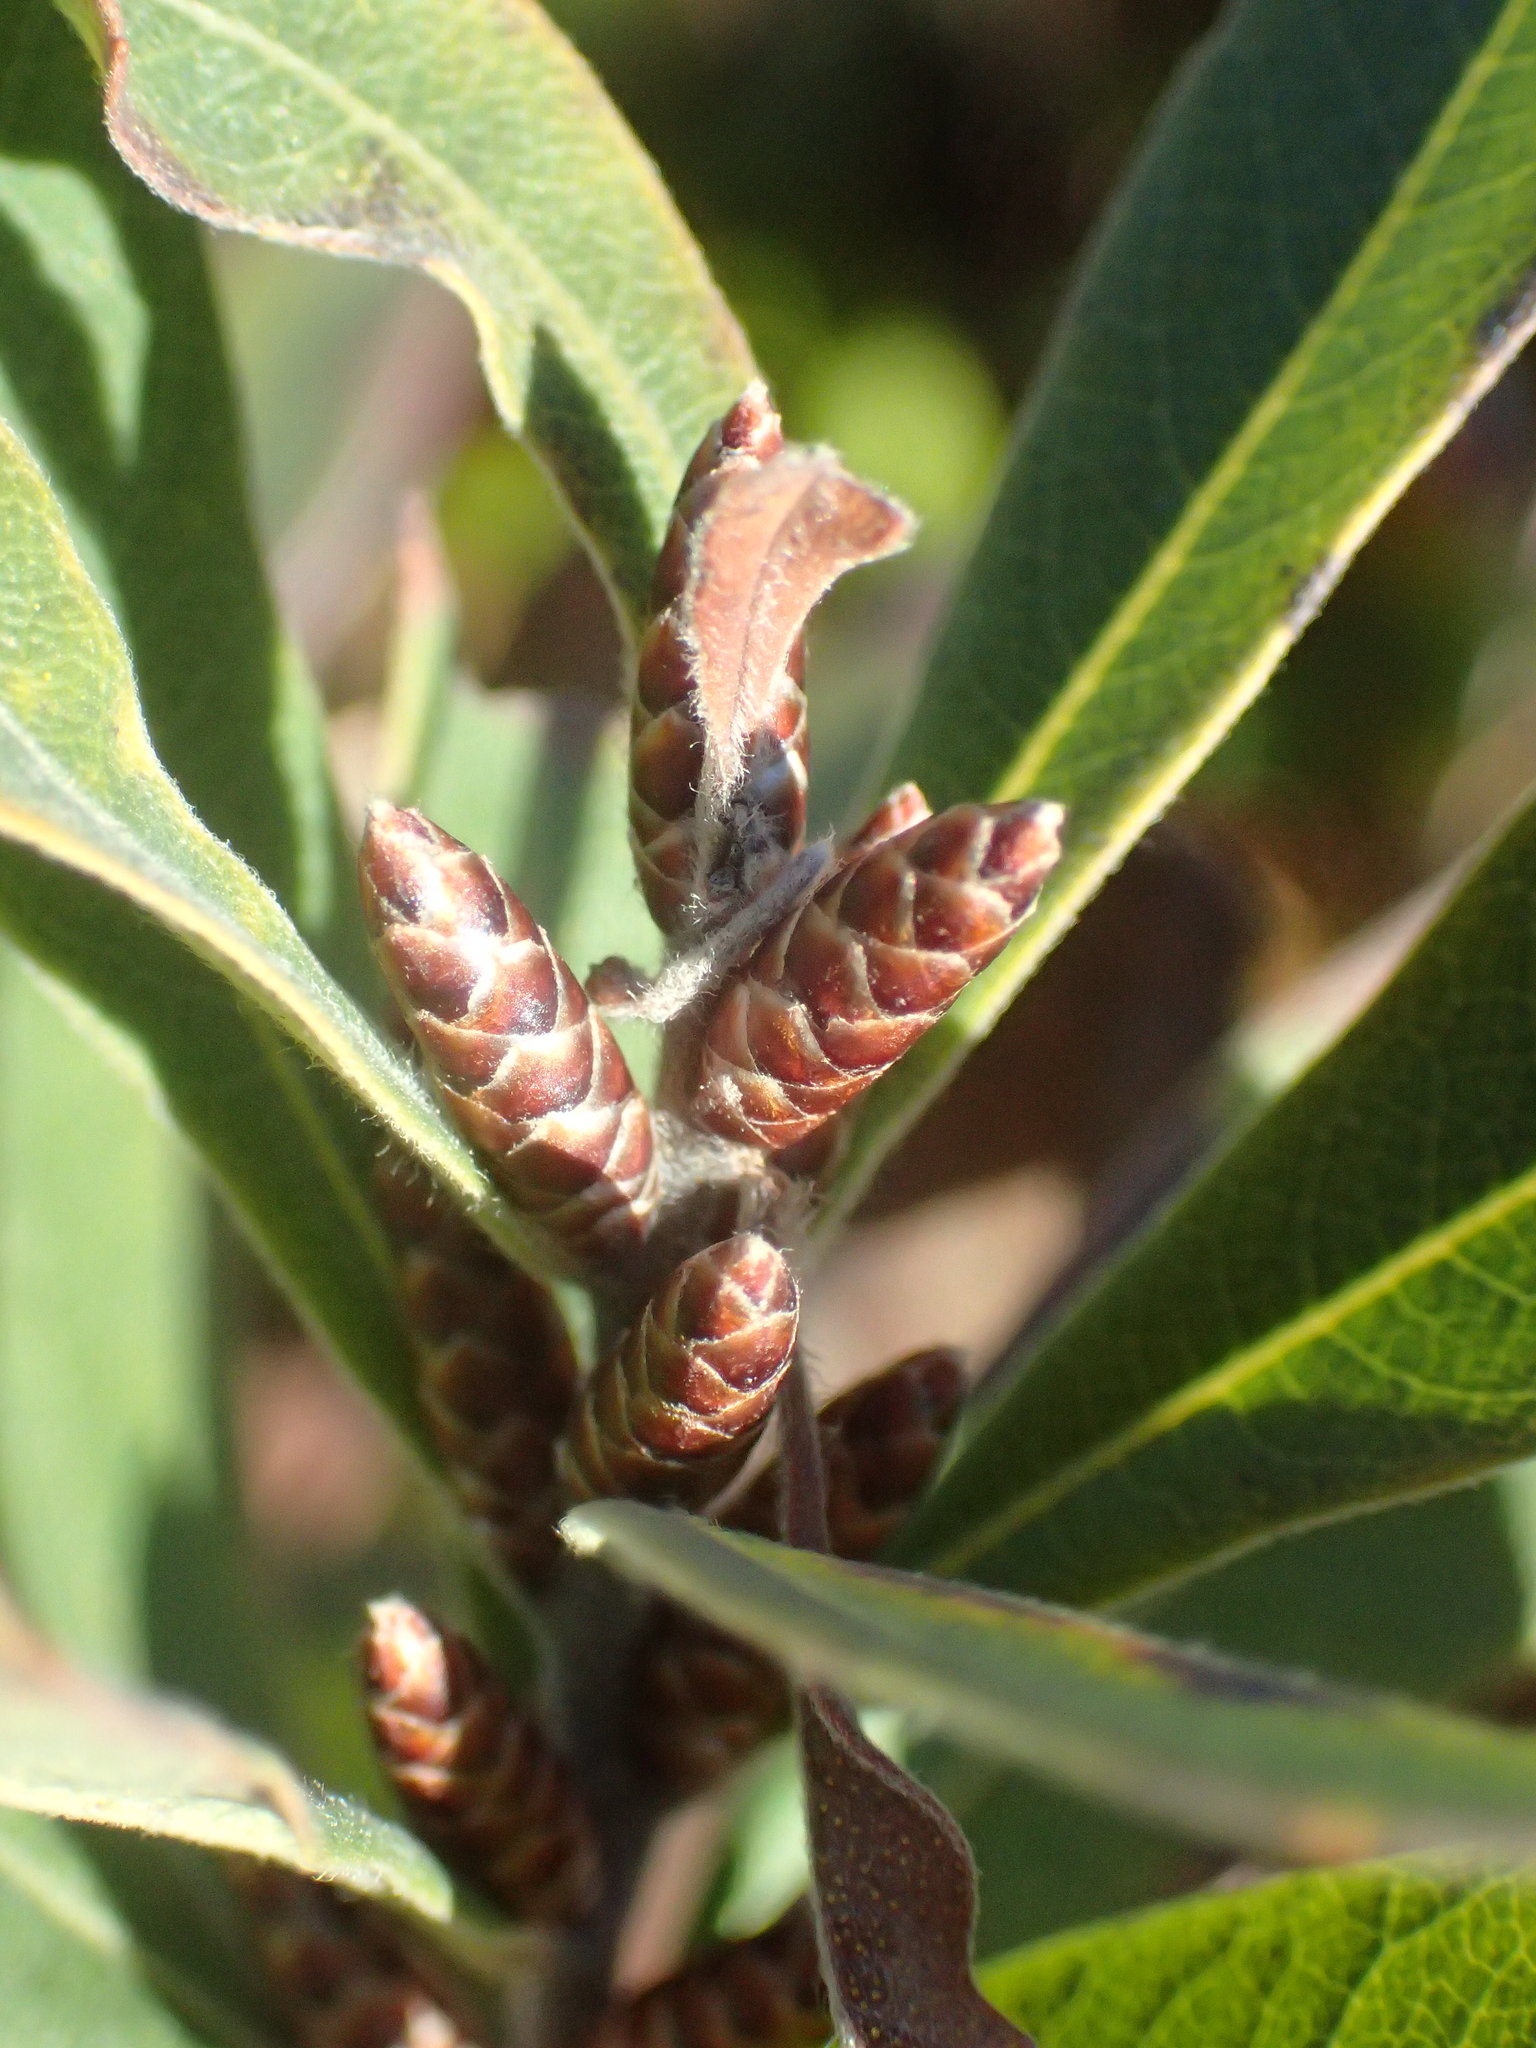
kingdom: Plantae
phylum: Tracheophyta
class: Magnoliopsida
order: Fagales
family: Myricaceae
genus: Myrica
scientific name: Myrica gale
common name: Sweet gale
